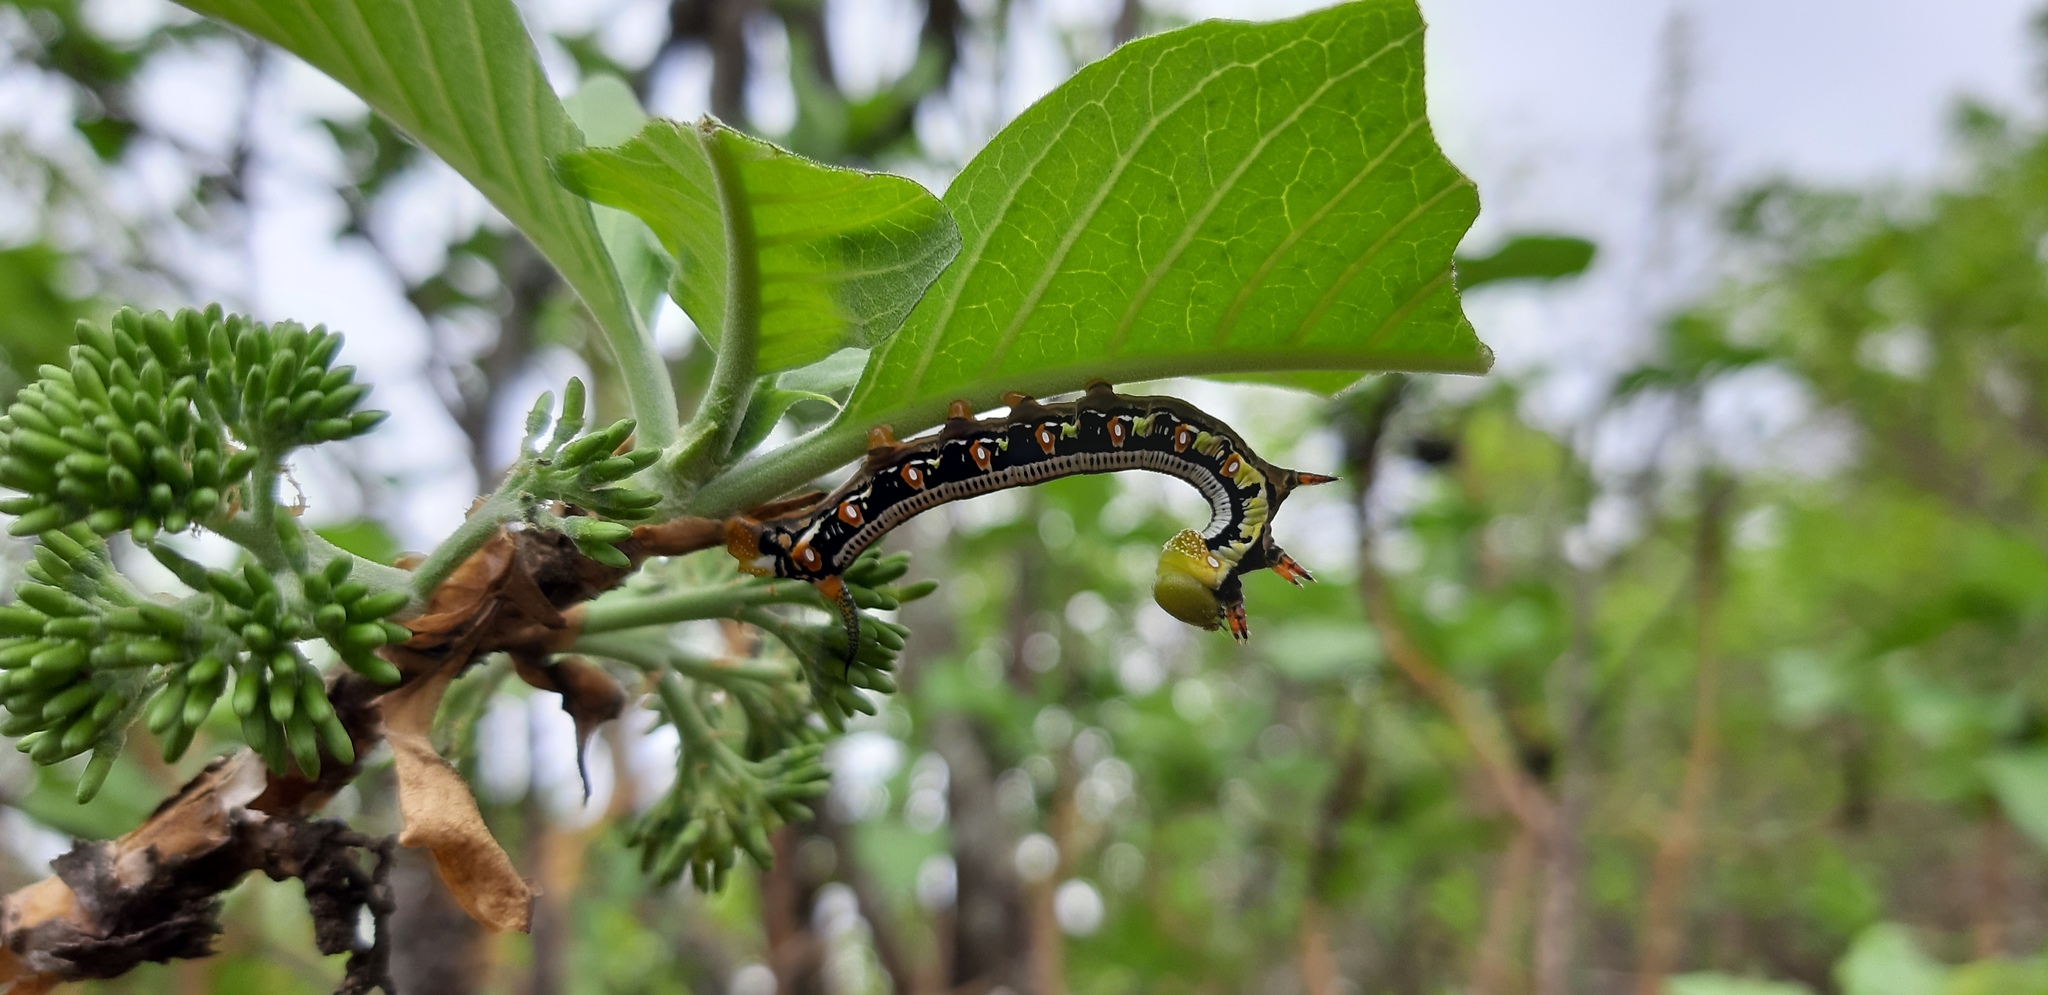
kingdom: Animalia
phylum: Arthropoda
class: Insecta
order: Lepidoptera
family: Sphingidae
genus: Cephonodes
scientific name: Cephonodes hylas
